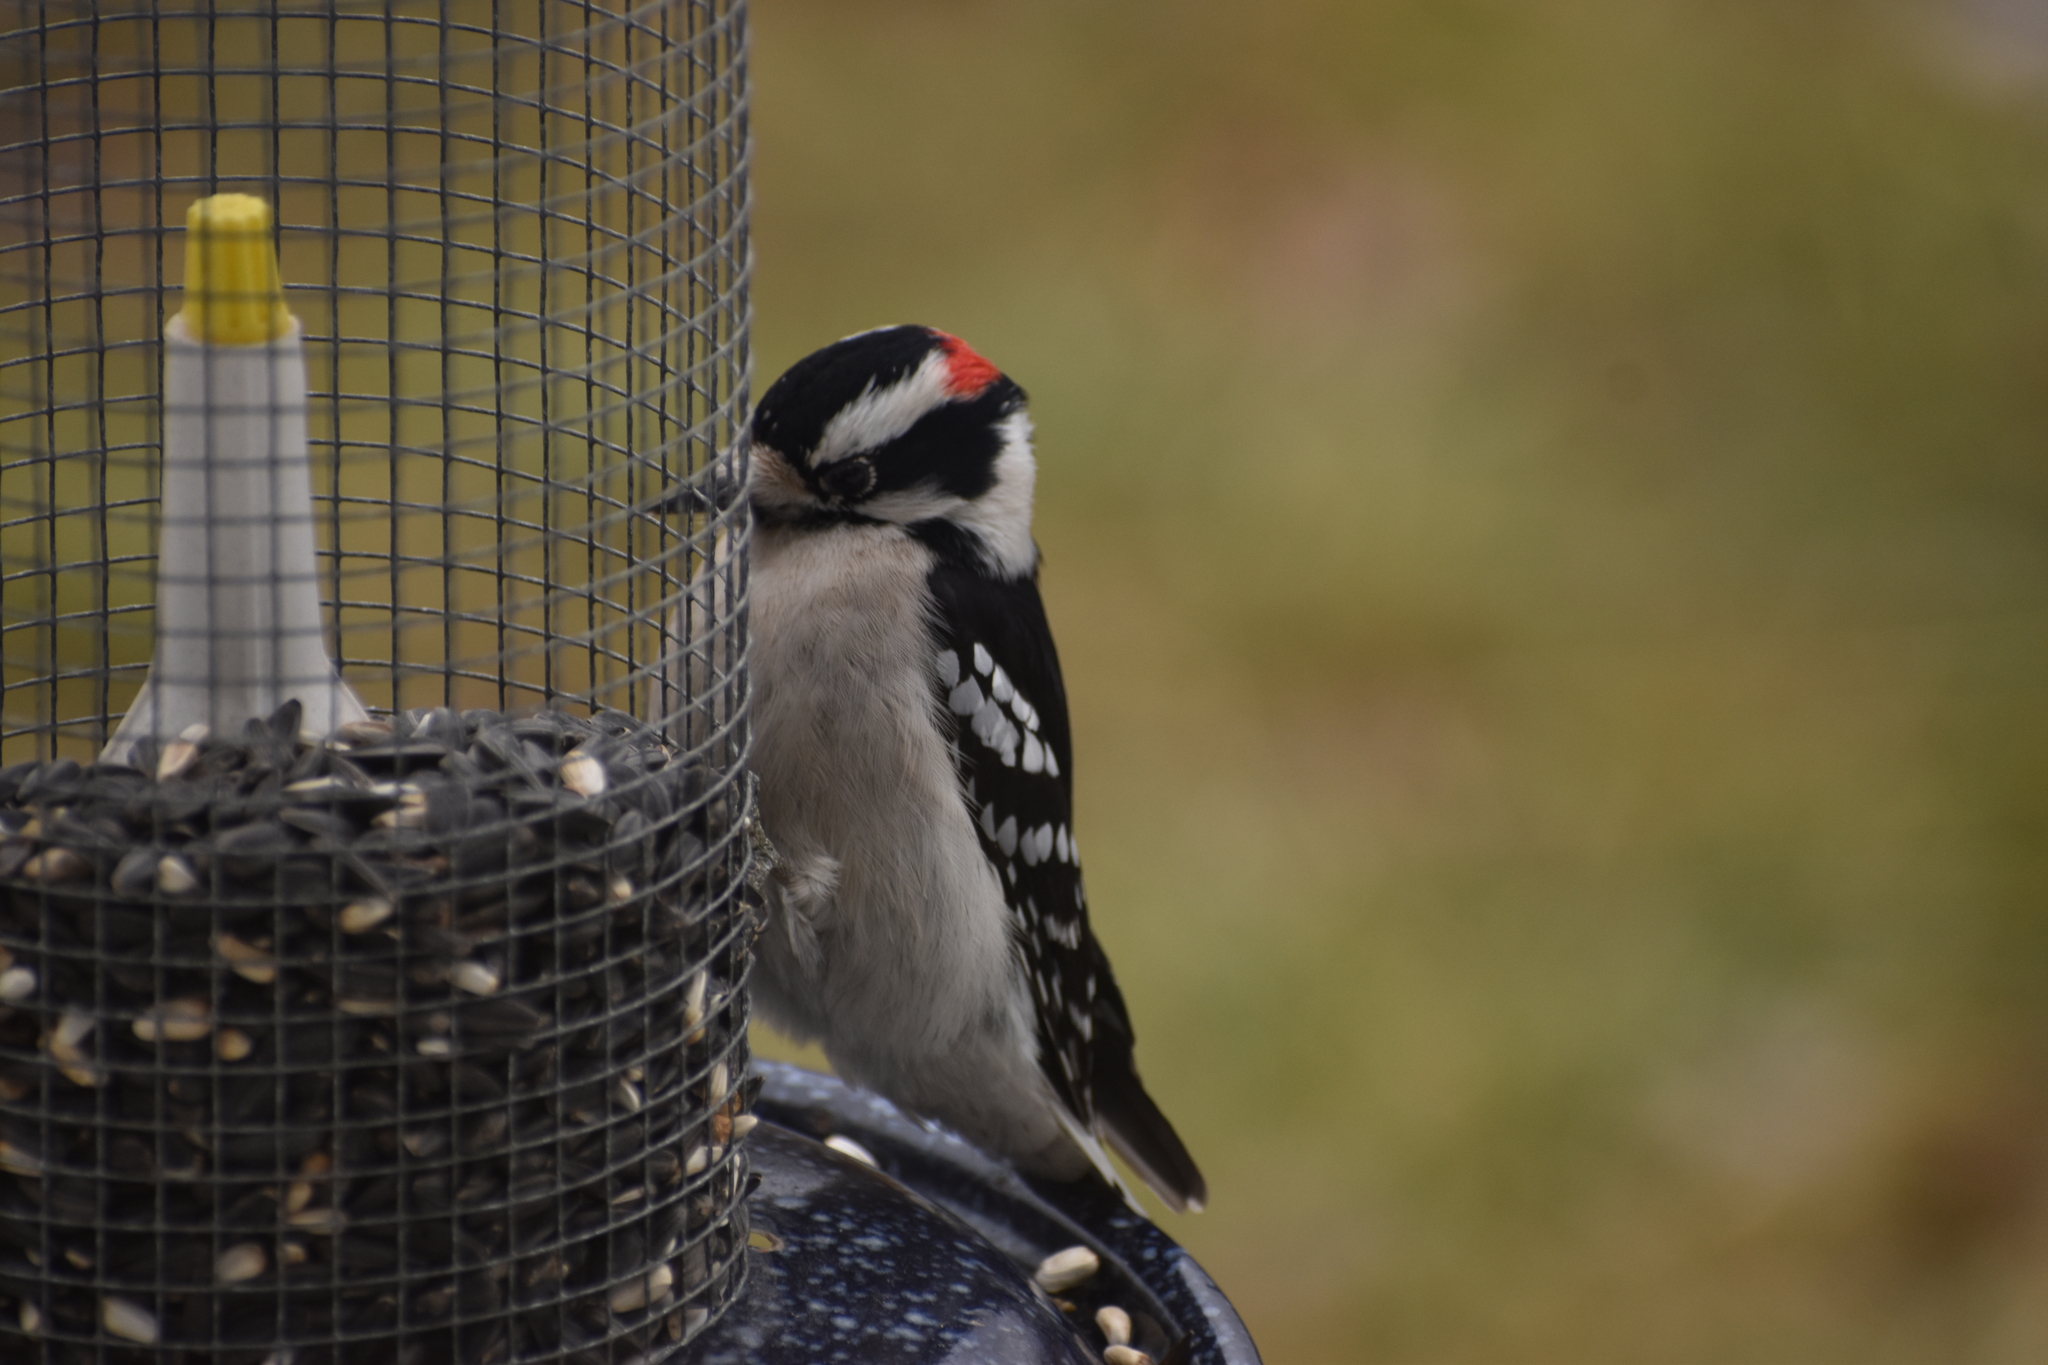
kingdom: Animalia
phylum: Chordata
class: Aves
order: Piciformes
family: Picidae
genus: Dryobates
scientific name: Dryobates pubescens
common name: Downy woodpecker
